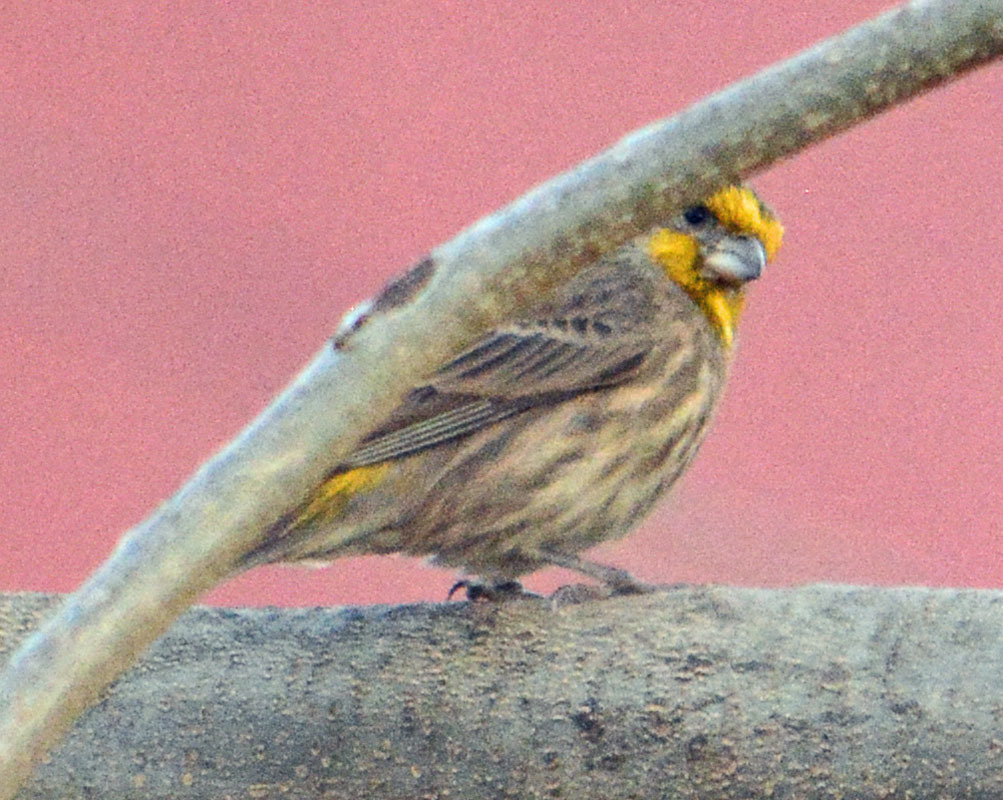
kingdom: Animalia
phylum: Chordata
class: Aves
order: Passeriformes
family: Fringillidae
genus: Haemorhous
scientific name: Haemorhous mexicanus
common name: House finch
